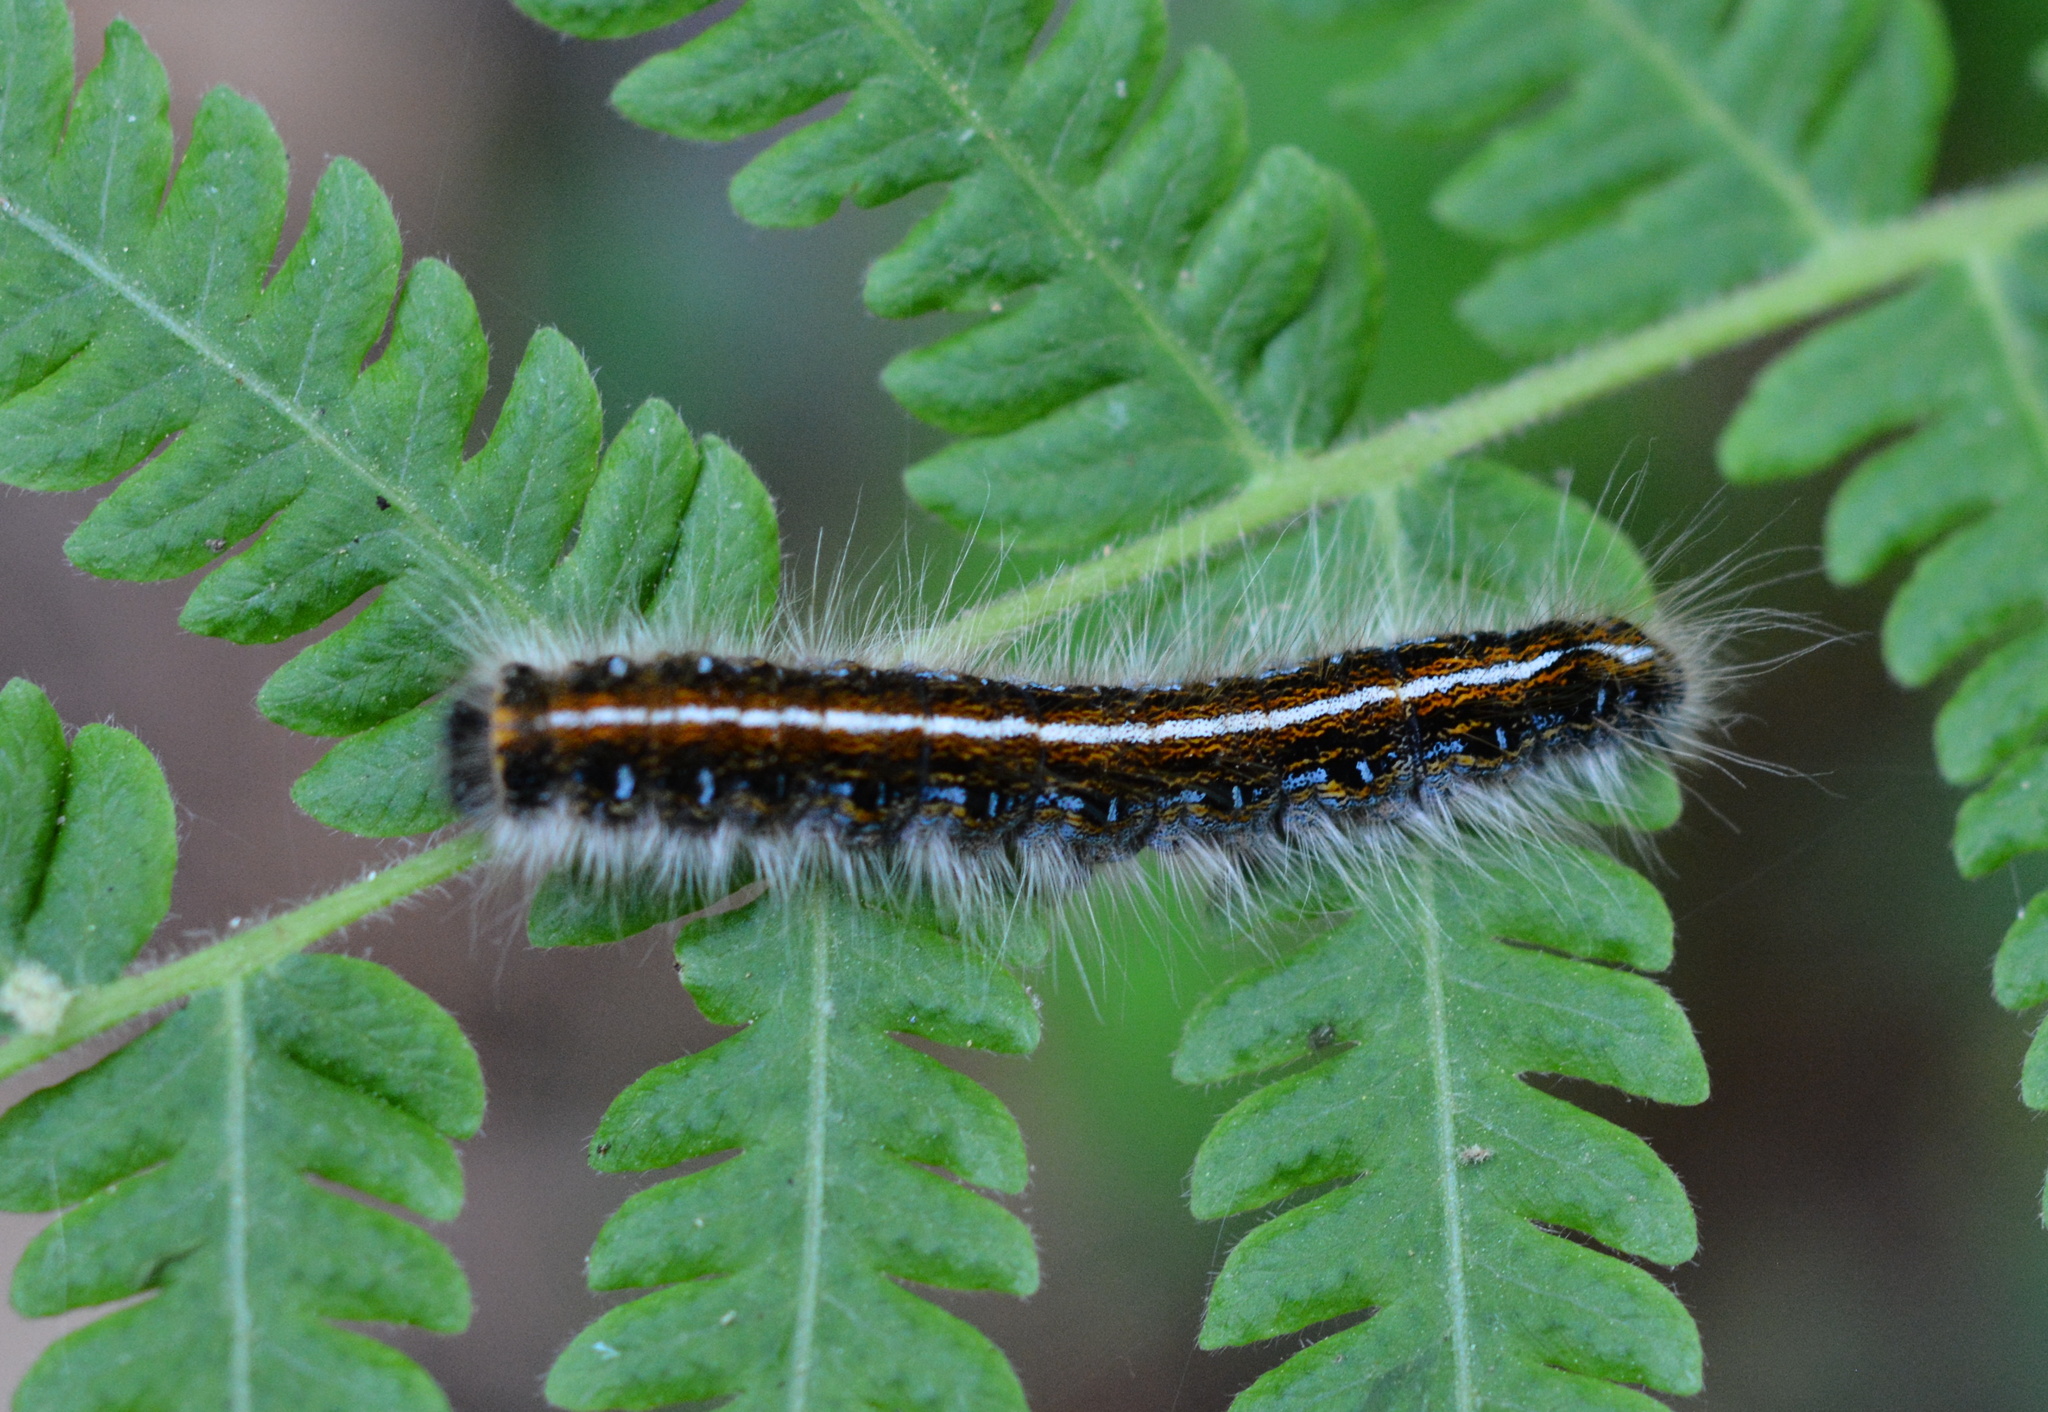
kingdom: Animalia
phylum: Arthropoda
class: Insecta
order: Lepidoptera
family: Lasiocampidae
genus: Malacosoma
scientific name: Malacosoma americana
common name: Eastern tent caterpillar moth
